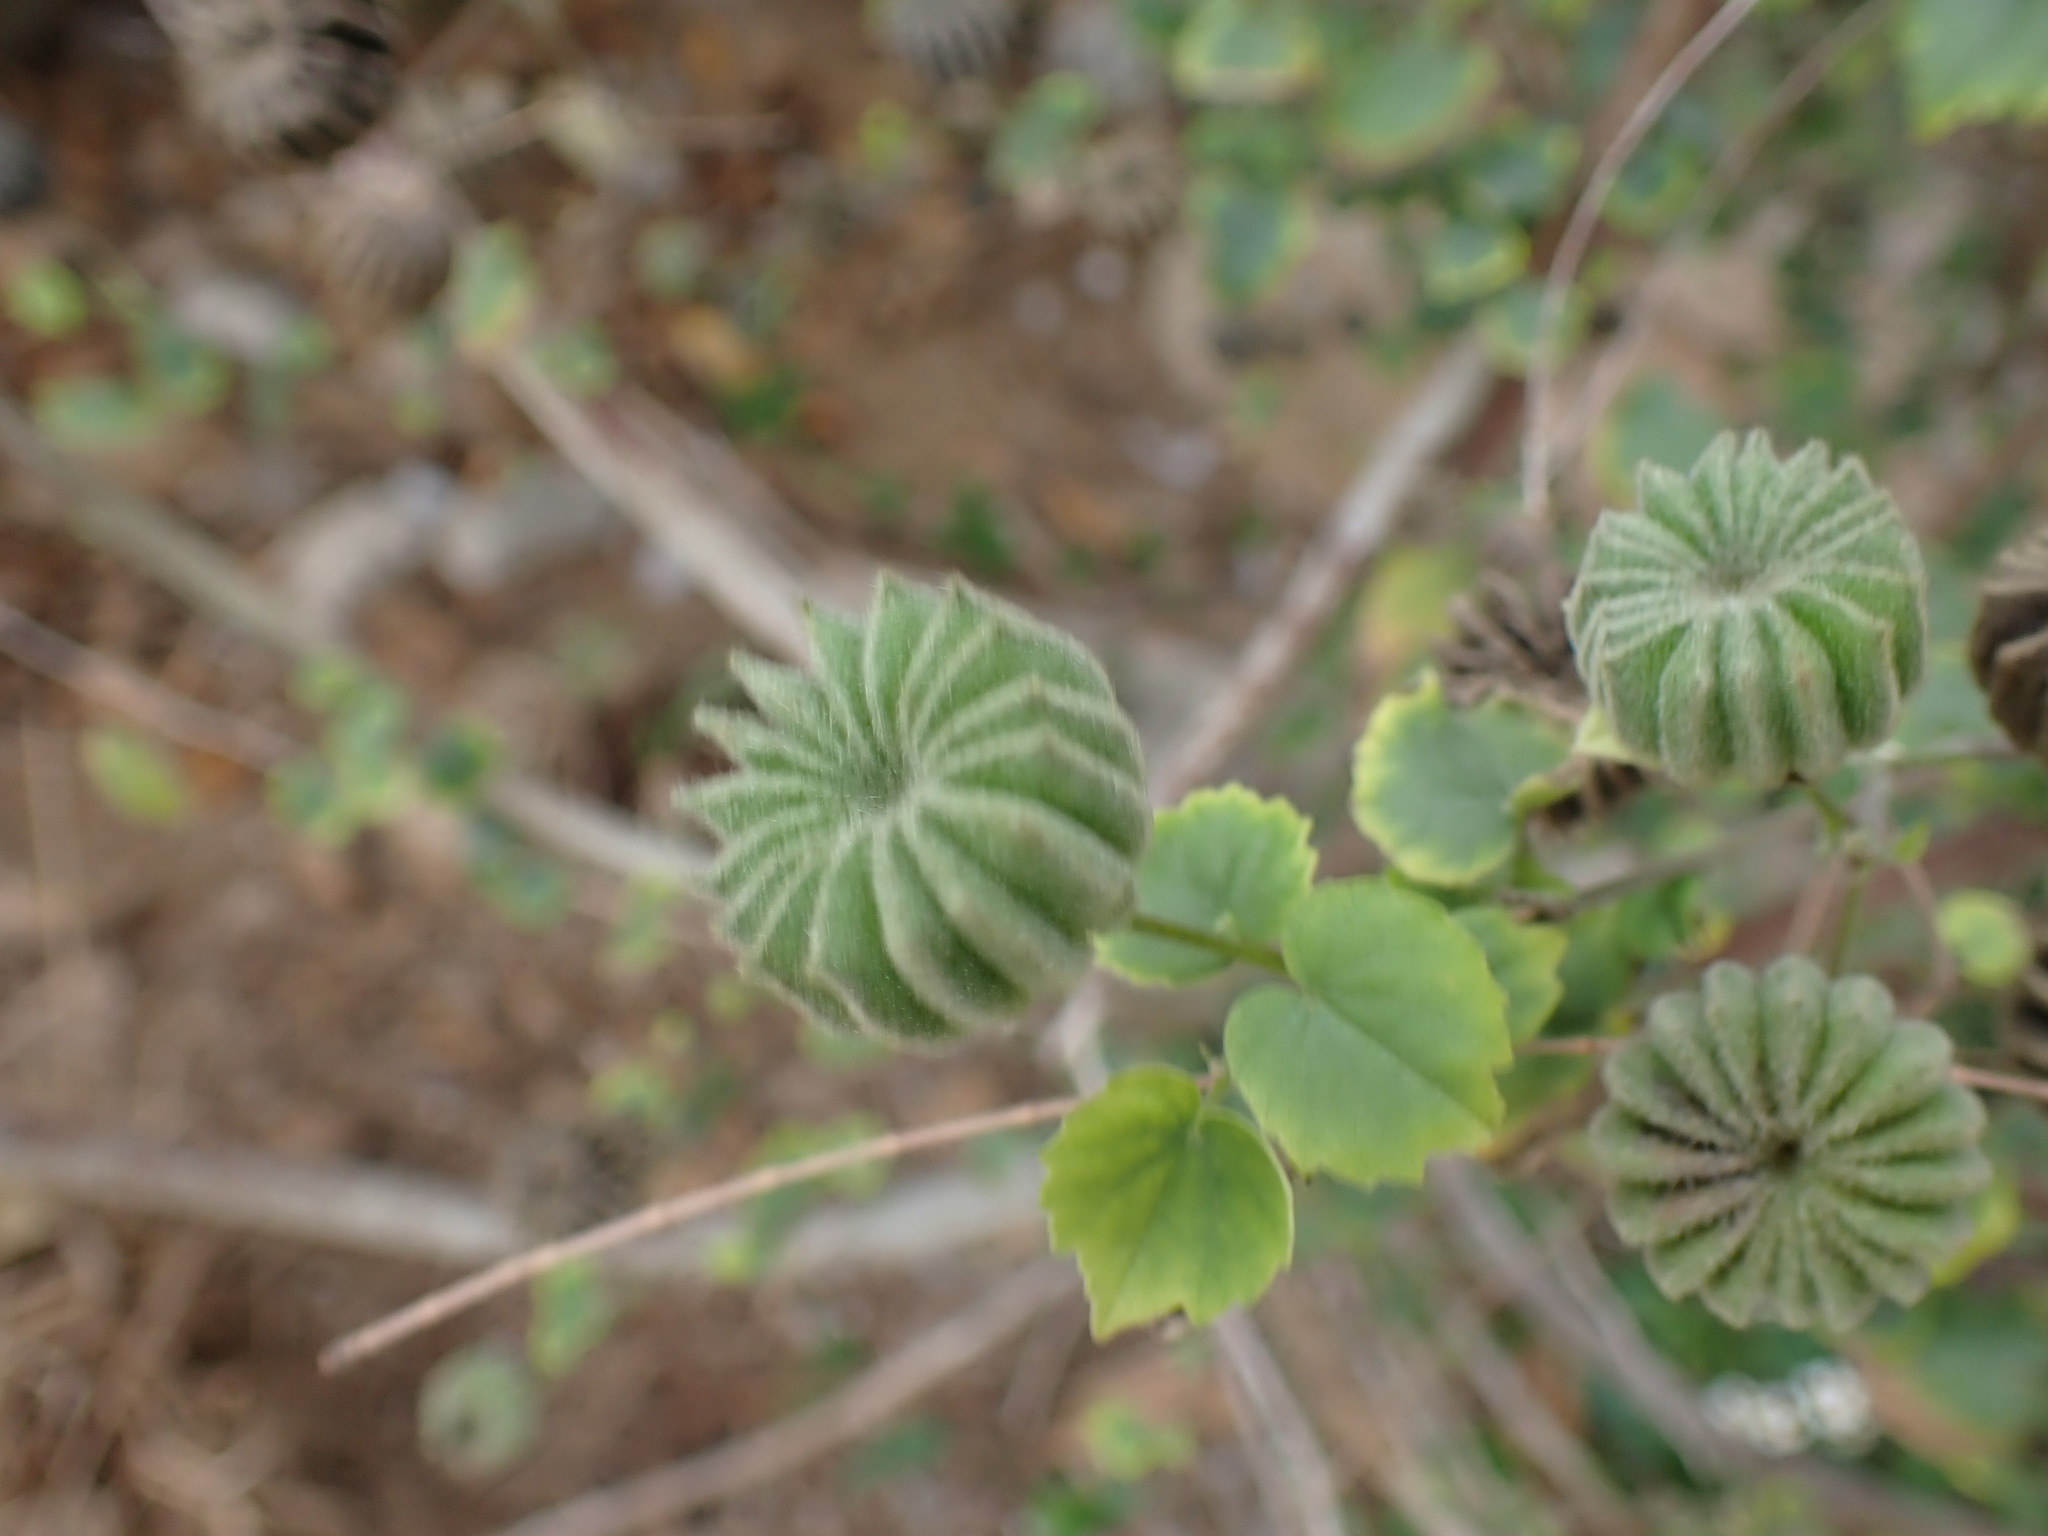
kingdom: Plantae
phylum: Tracheophyta
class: Magnoliopsida
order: Malvales
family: Malvaceae
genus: Abutilon
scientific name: Abutilon indicum
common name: Indian abutilon
